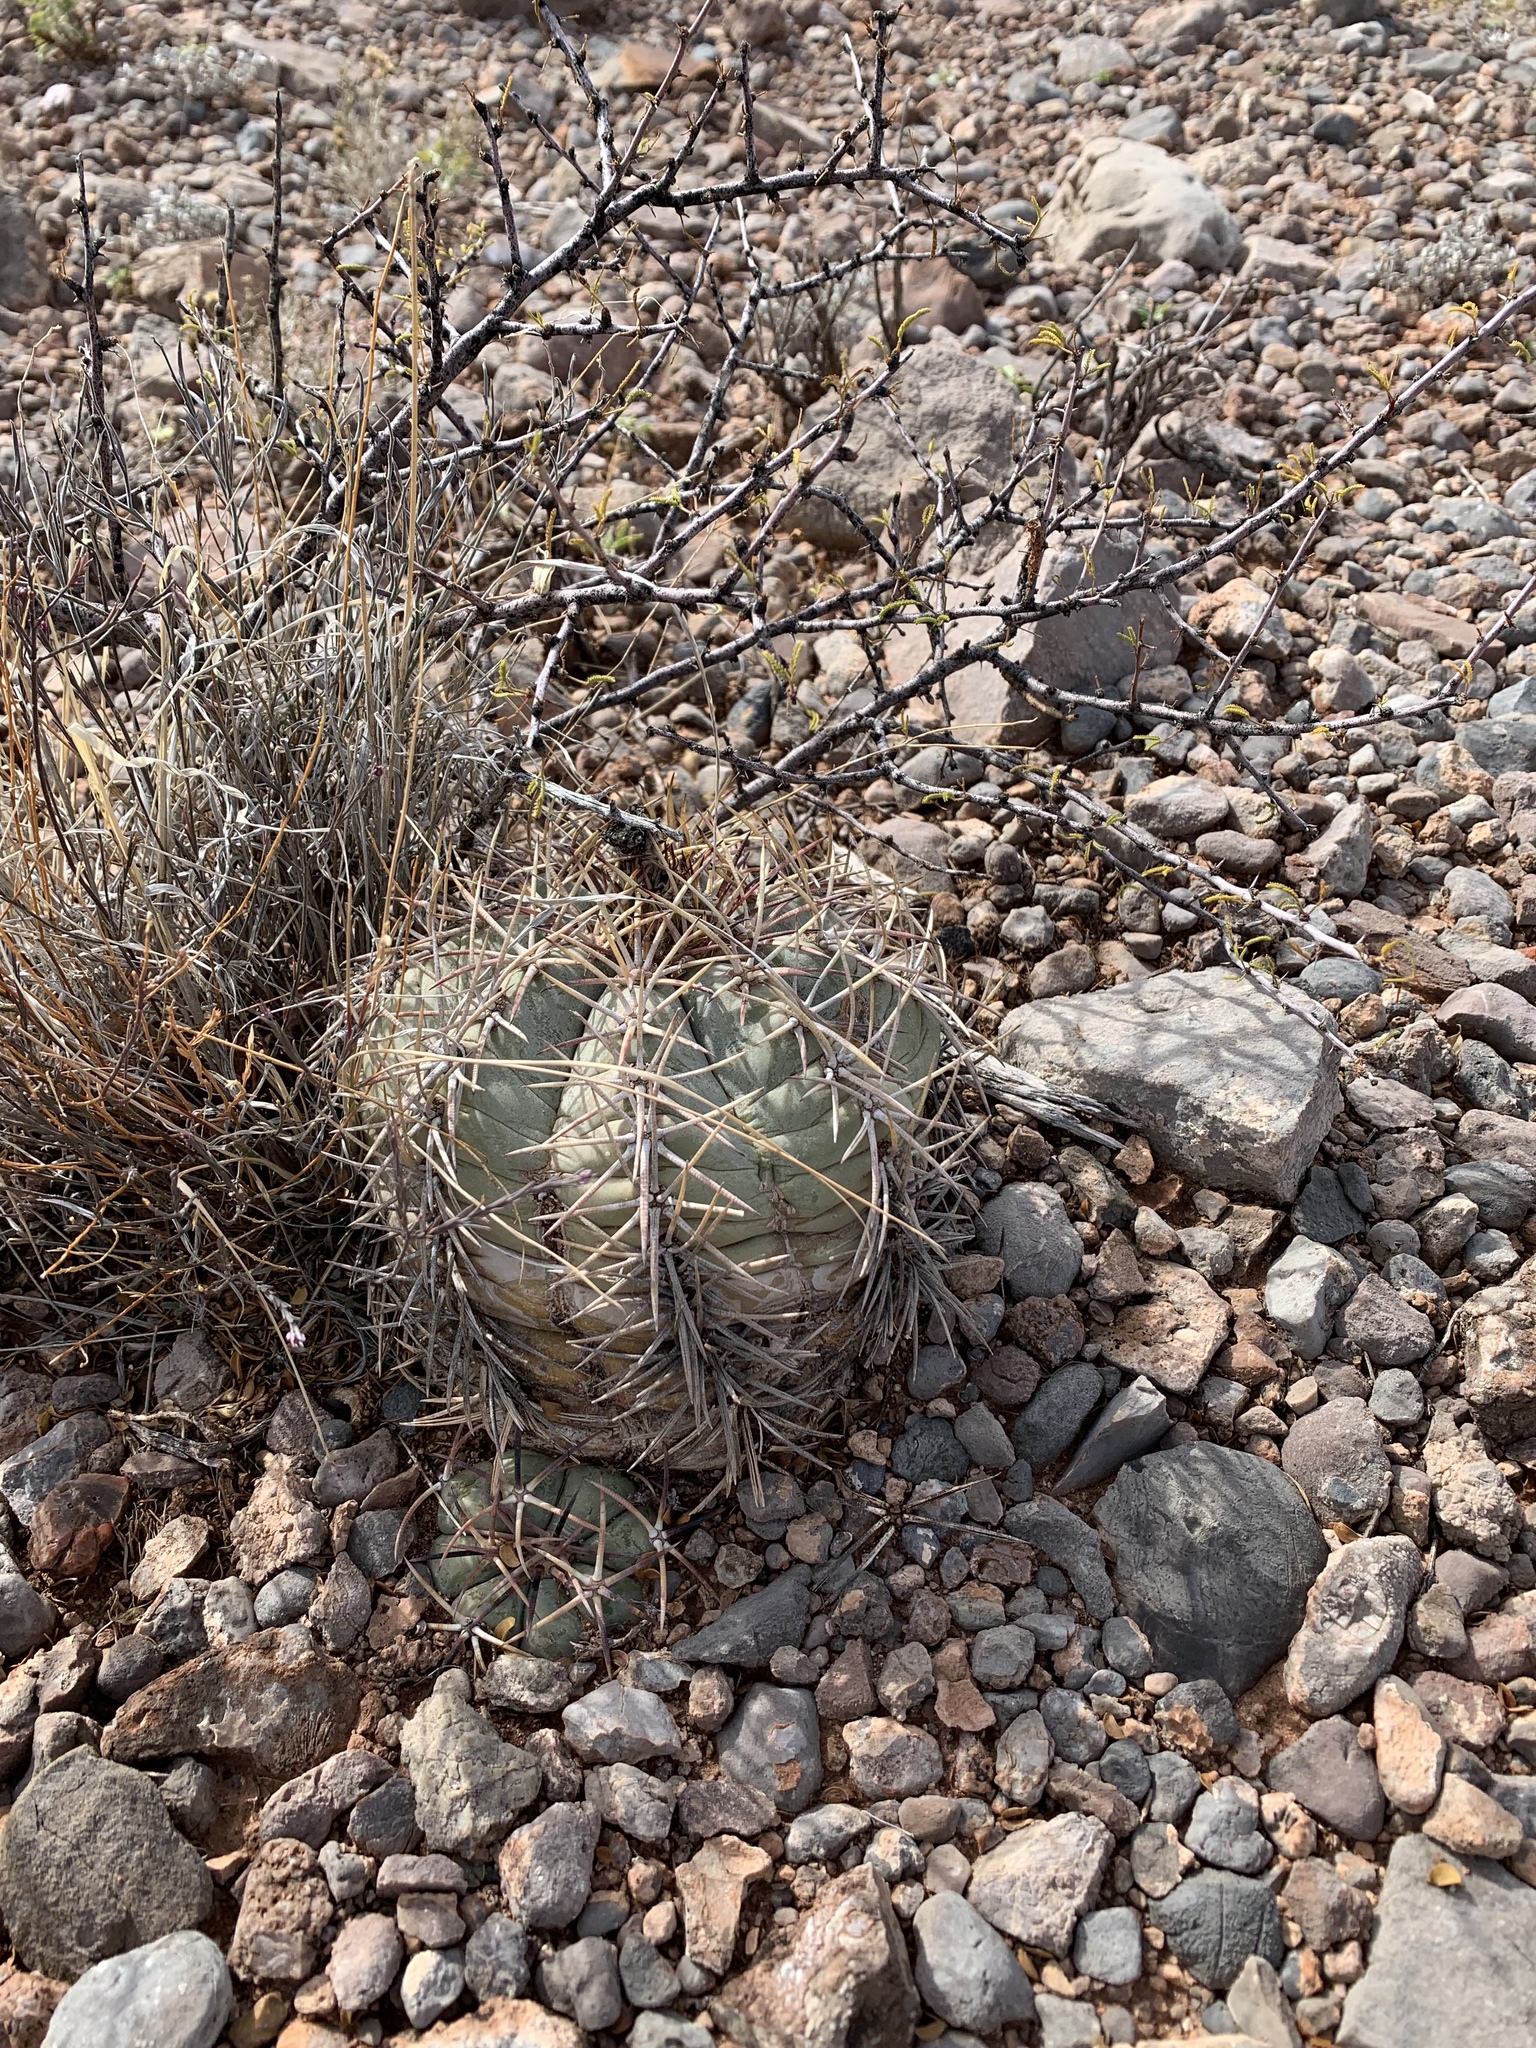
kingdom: Plantae
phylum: Tracheophyta
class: Magnoliopsida
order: Caryophyllales
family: Cactaceae
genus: Echinocactus
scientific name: Echinocactus horizonthalonius
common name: Devilshead
